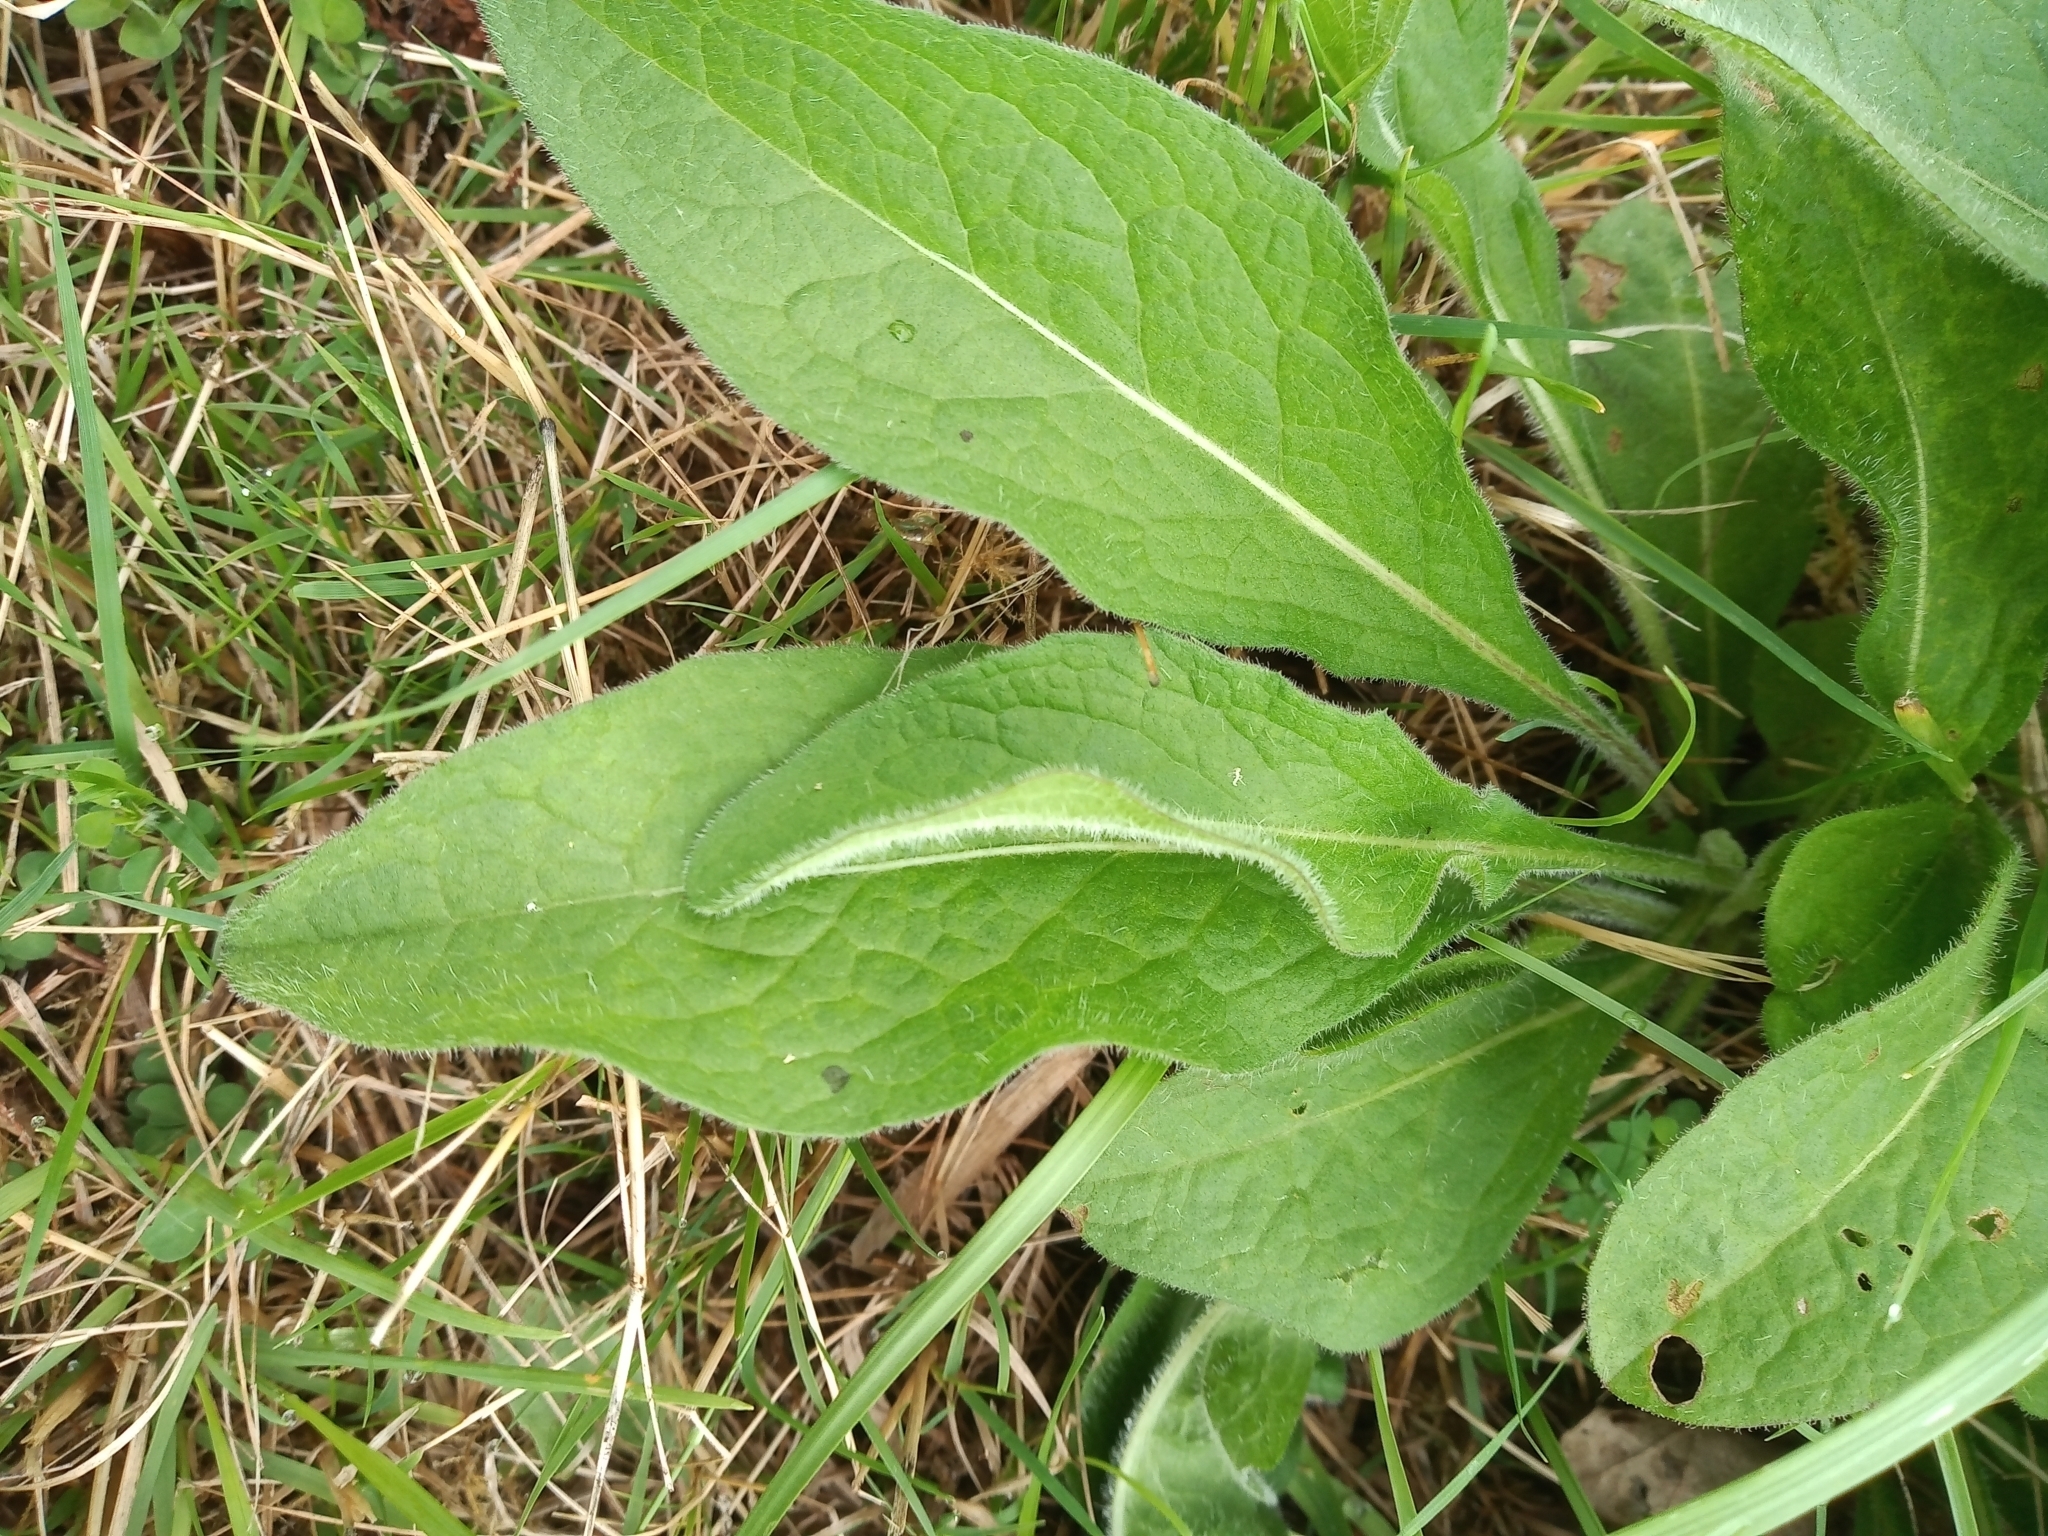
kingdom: Plantae
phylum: Tracheophyta
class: Magnoliopsida
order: Asterales
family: Asteraceae
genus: Centaurea
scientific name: Centaurea nigra
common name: Lesser knapweed
